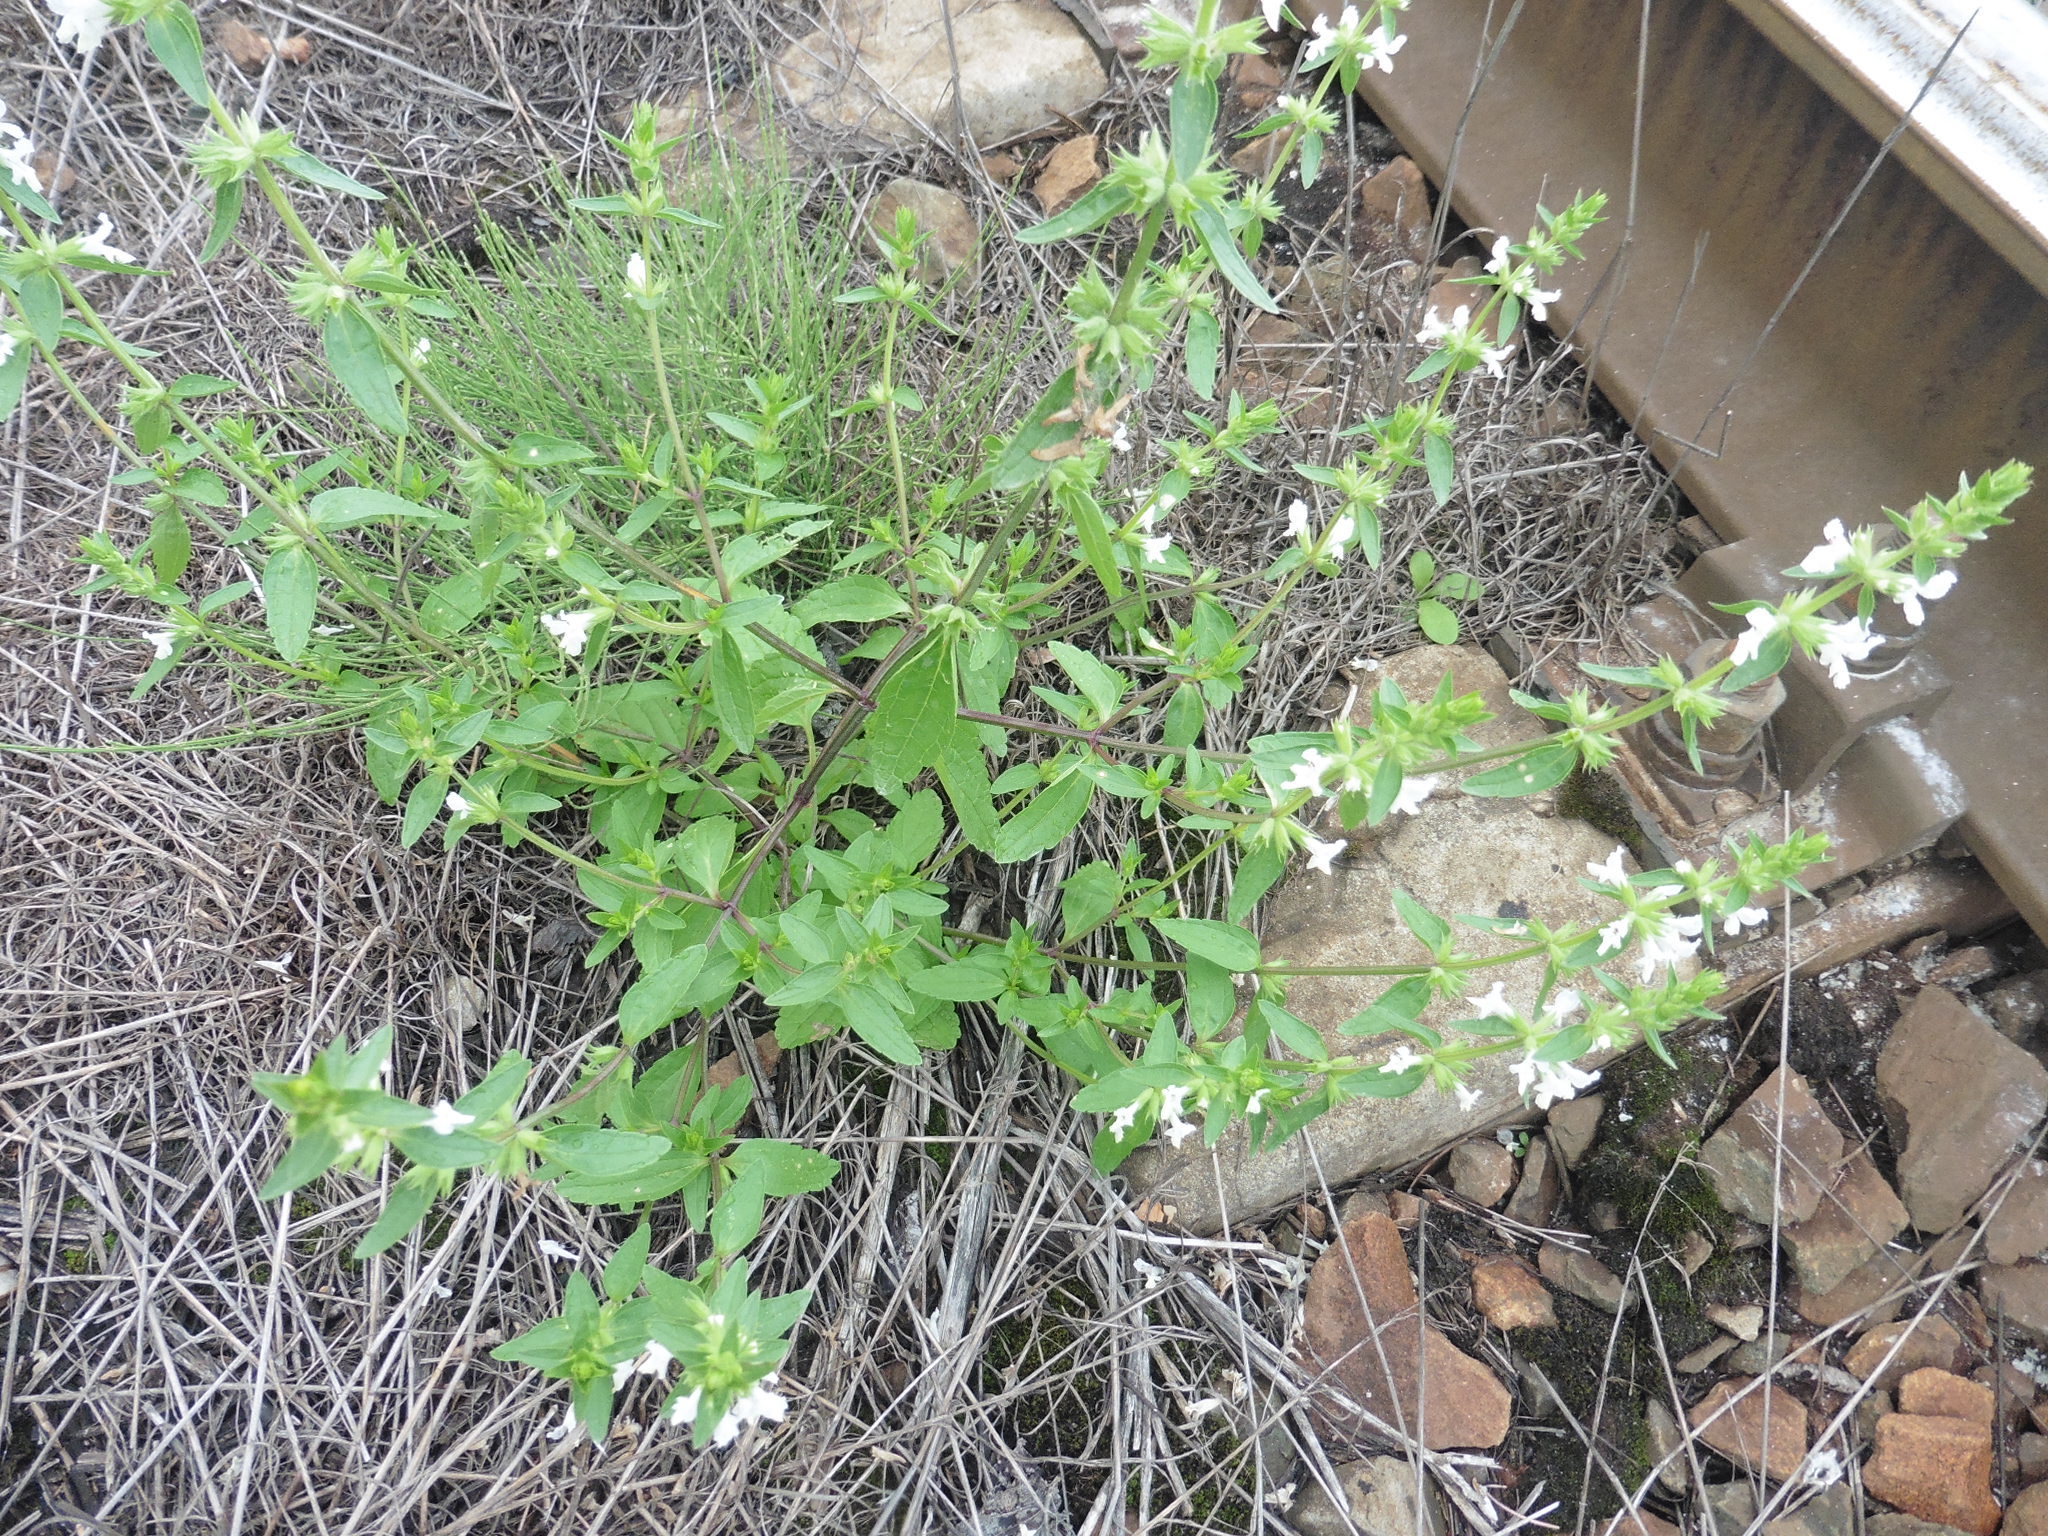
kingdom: Plantae
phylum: Tracheophyta
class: Magnoliopsida
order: Lamiales
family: Lamiaceae
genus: Stachys
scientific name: Stachys annua
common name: Annual yellow-woundwort
